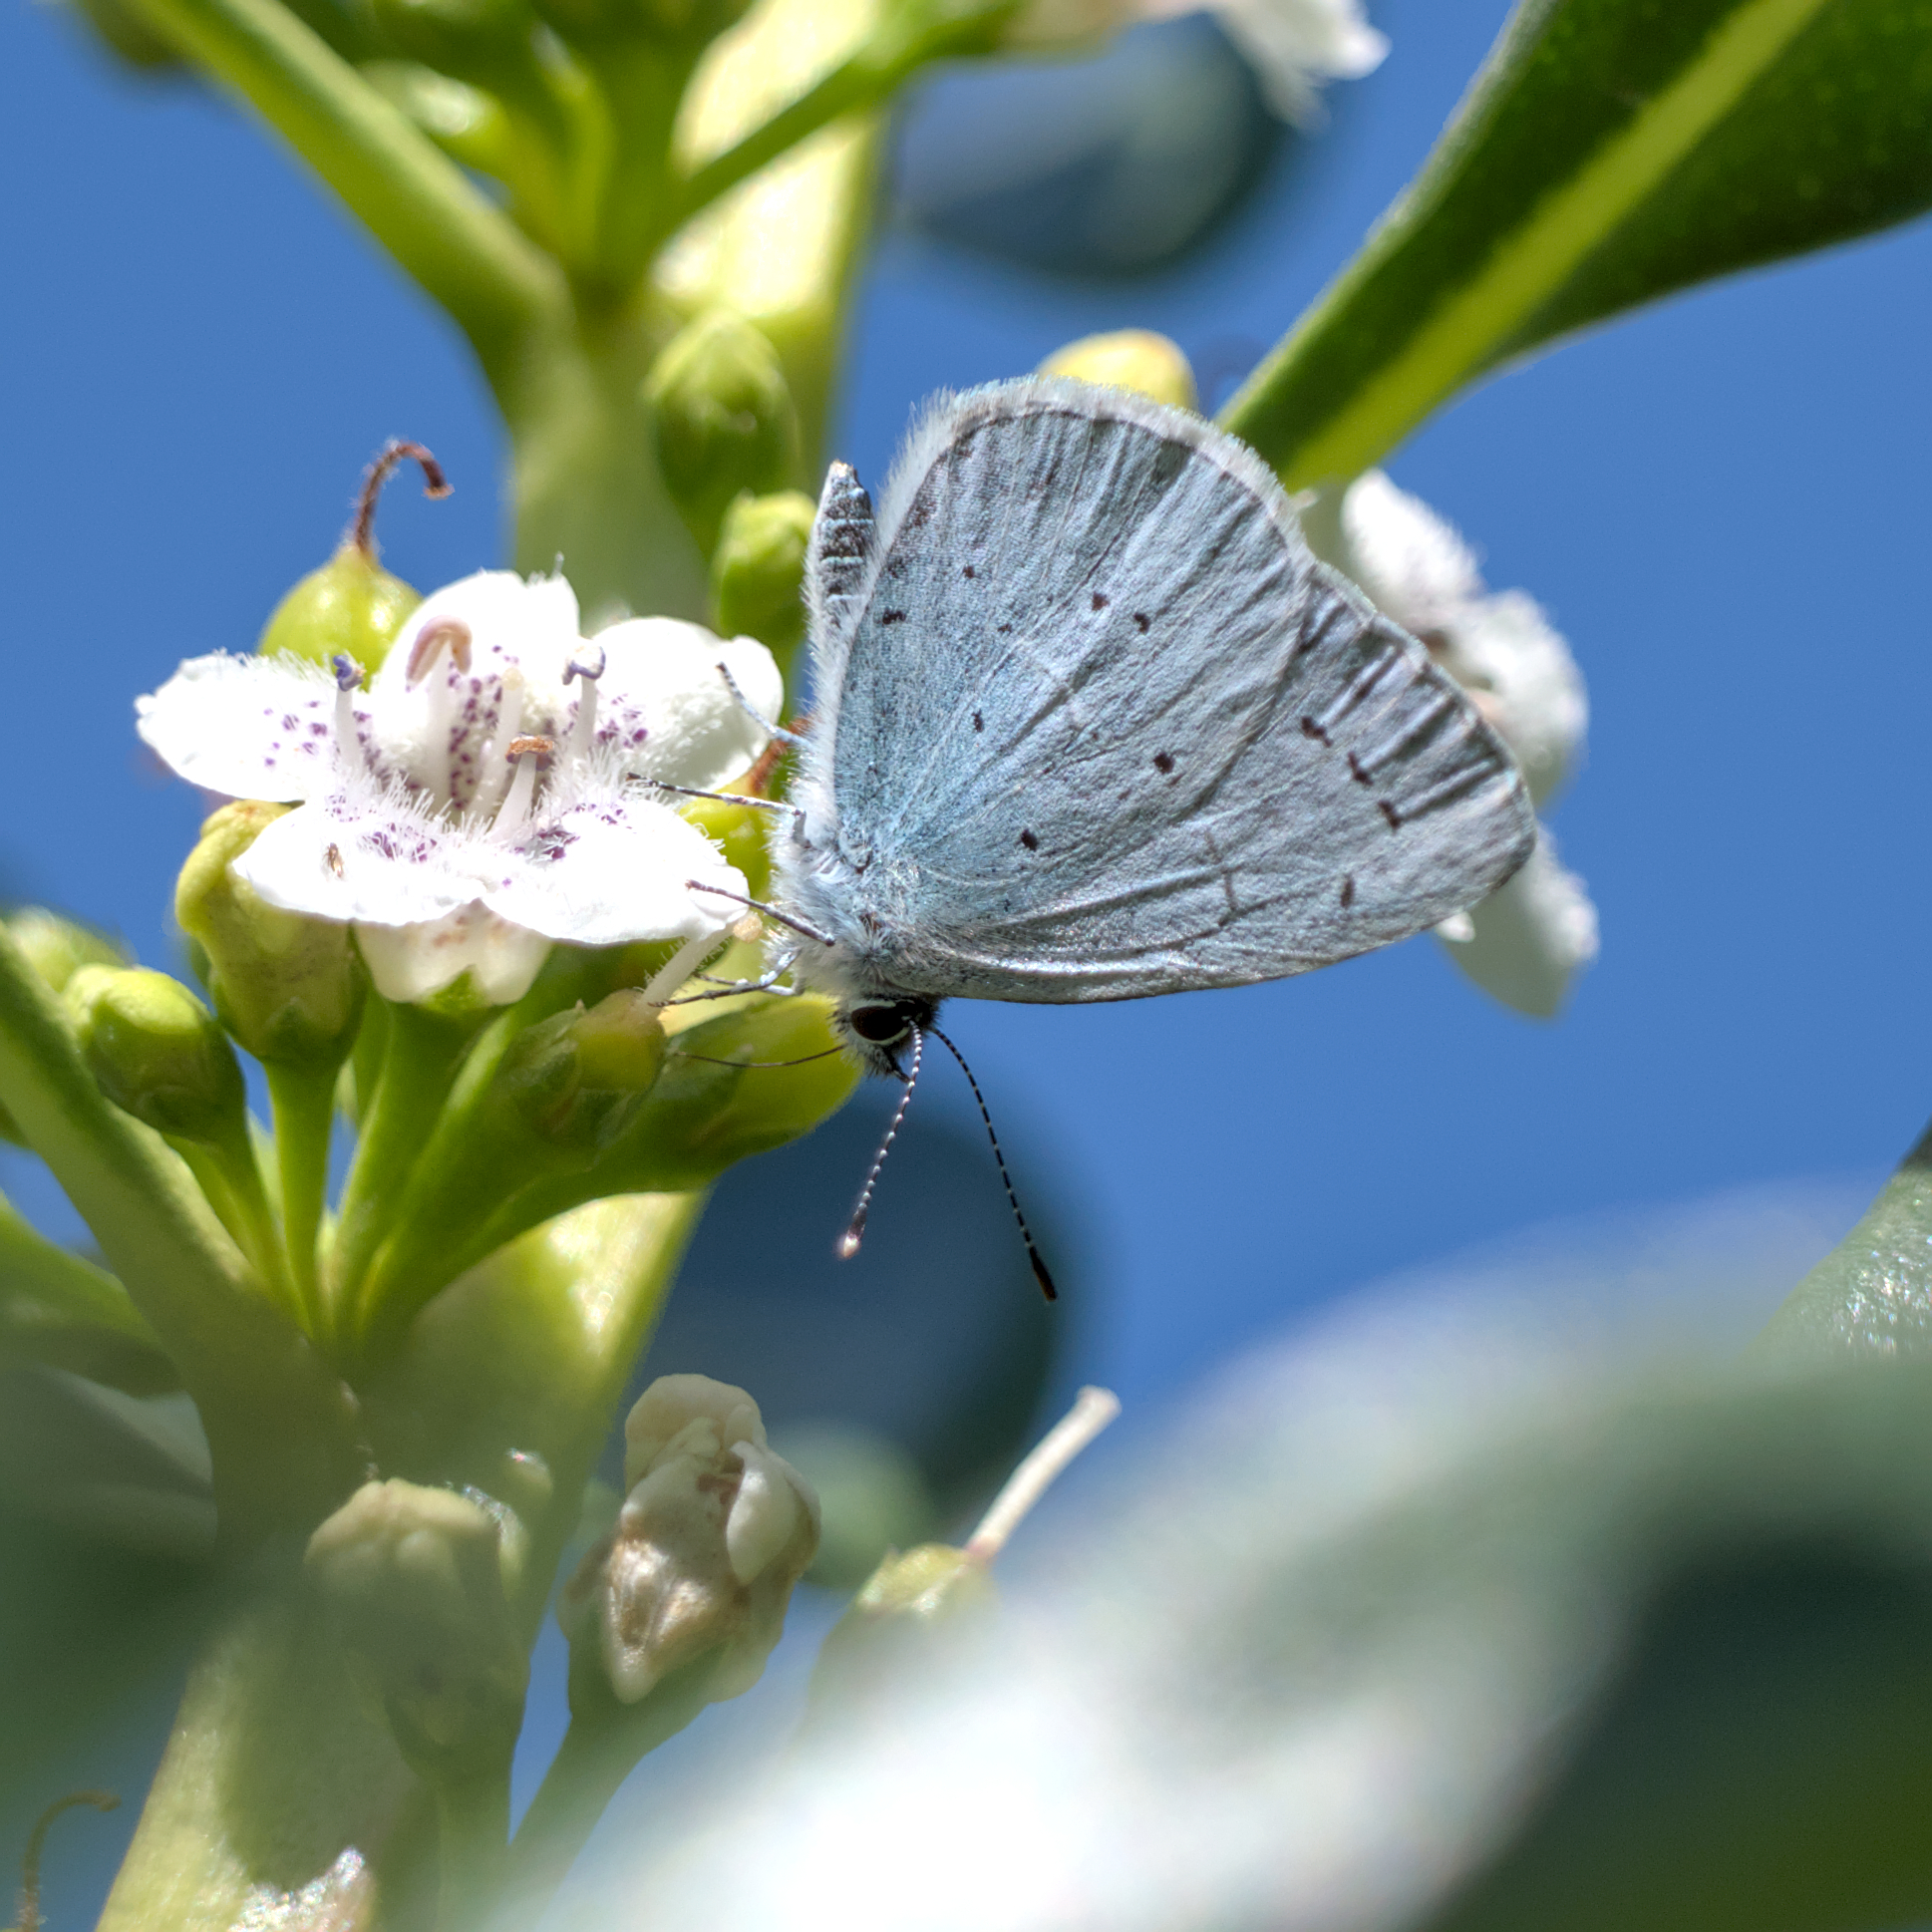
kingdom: Animalia
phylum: Arthropoda
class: Insecta
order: Lepidoptera
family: Lycaenidae
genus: Celastrina
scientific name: Celastrina argiolus
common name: Holly blue
